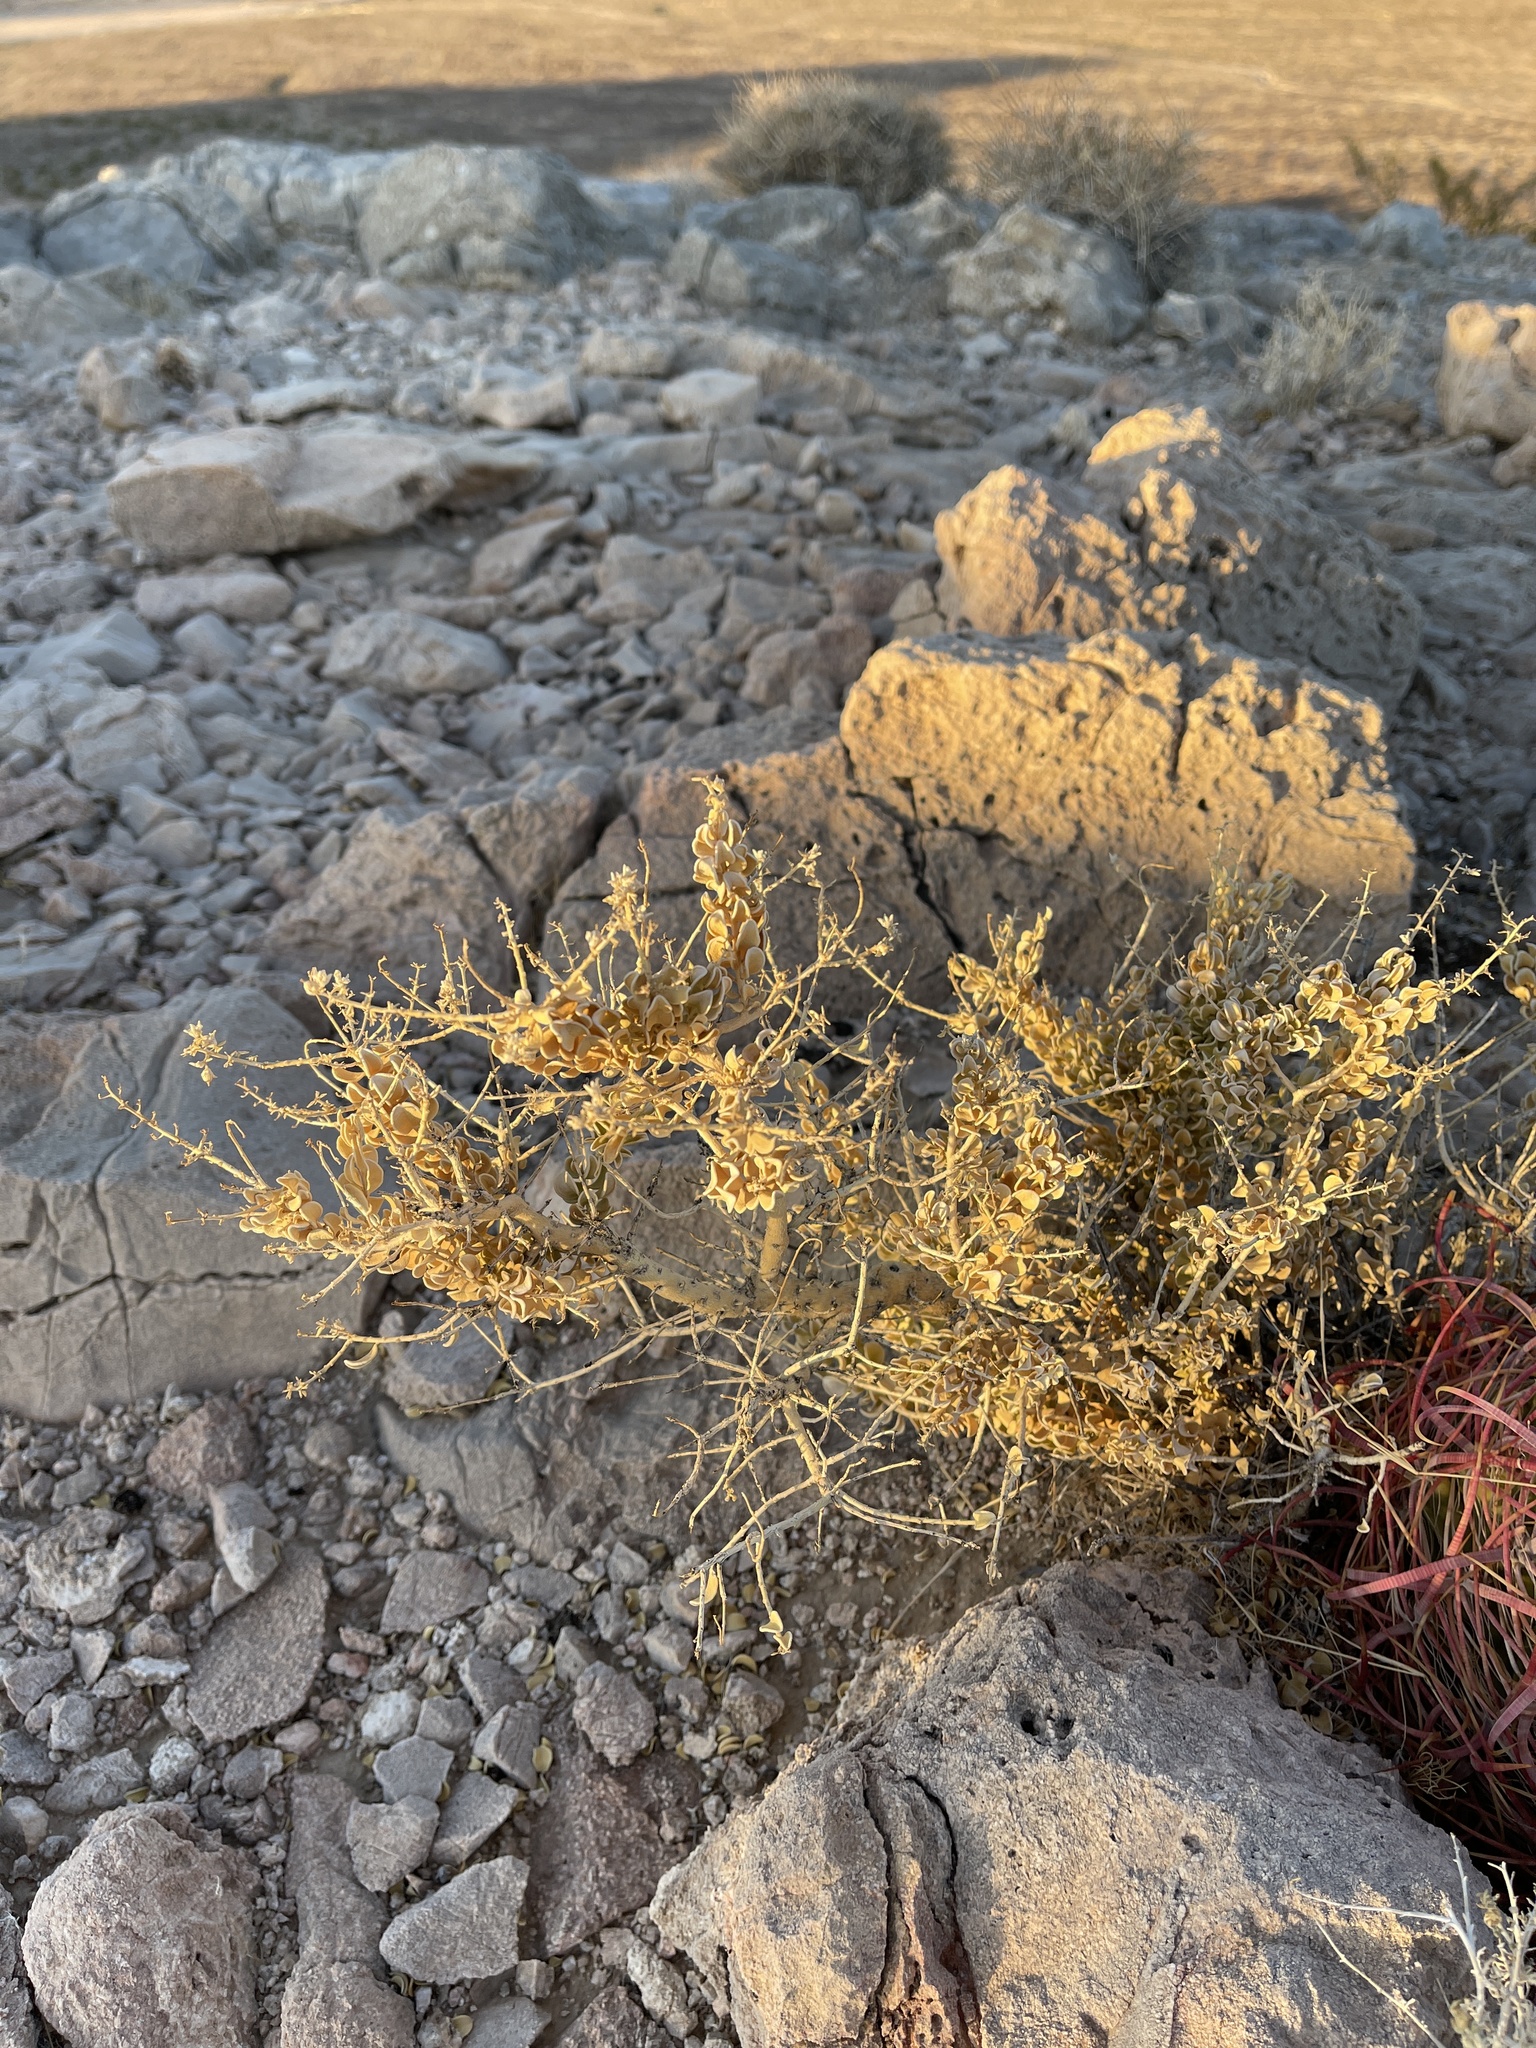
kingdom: Plantae
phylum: Tracheophyta
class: Magnoliopsida
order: Celastrales
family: Celastraceae
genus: Mortonia
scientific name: Mortonia utahensis
